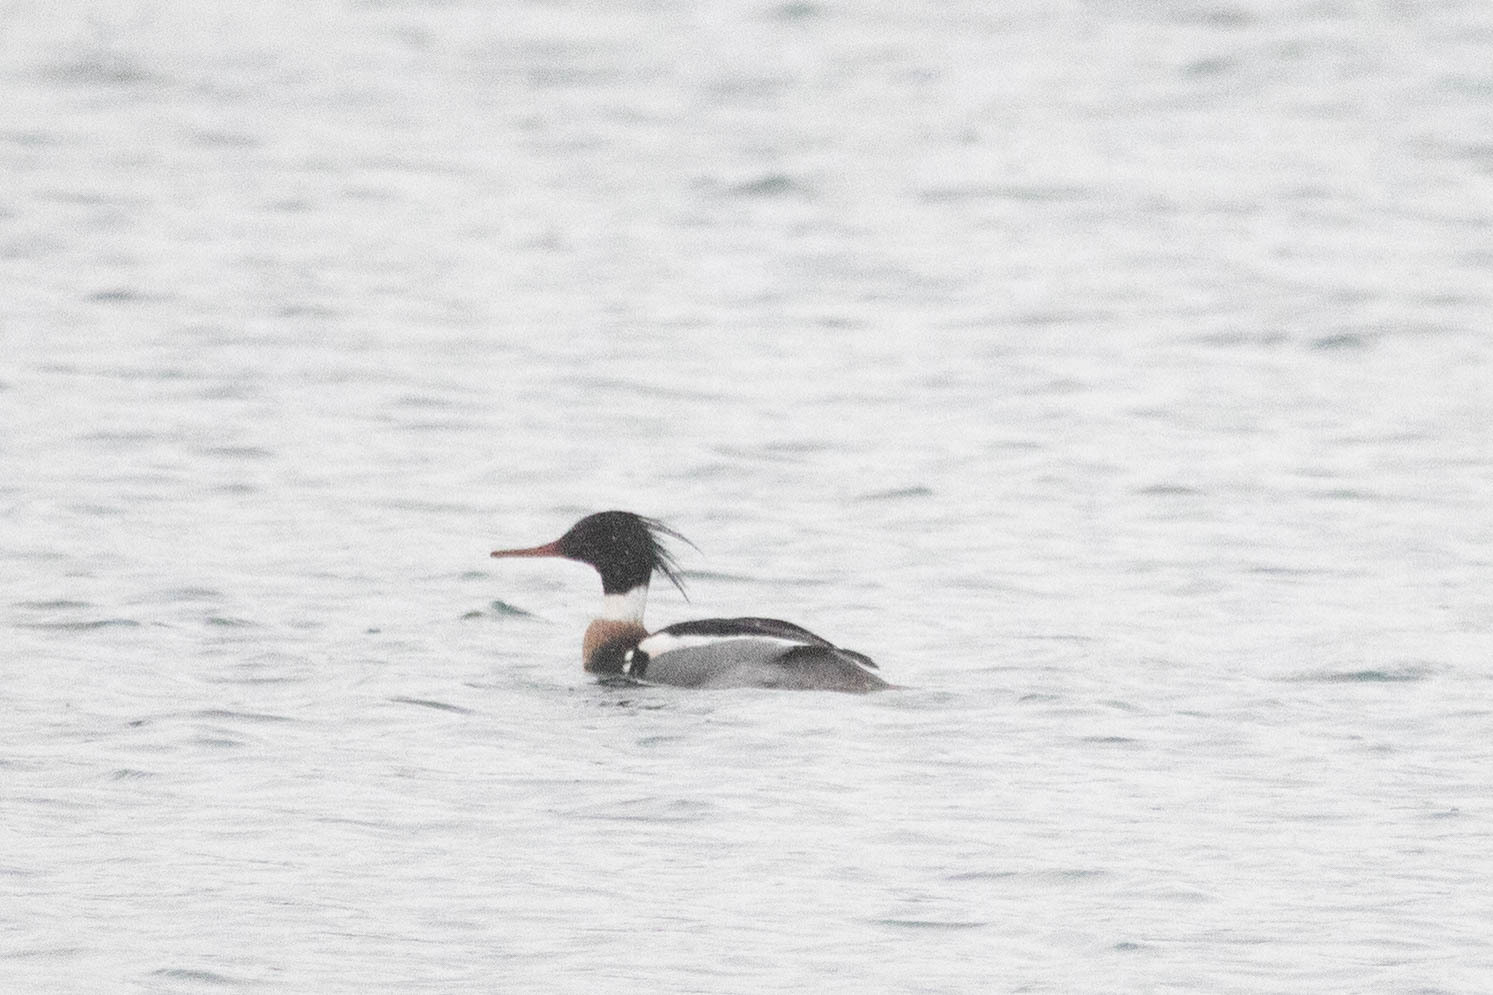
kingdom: Animalia
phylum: Chordata
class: Aves
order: Anseriformes
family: Anatidae
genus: Mergus
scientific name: Mergus serrator
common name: Red-breasted merganser
